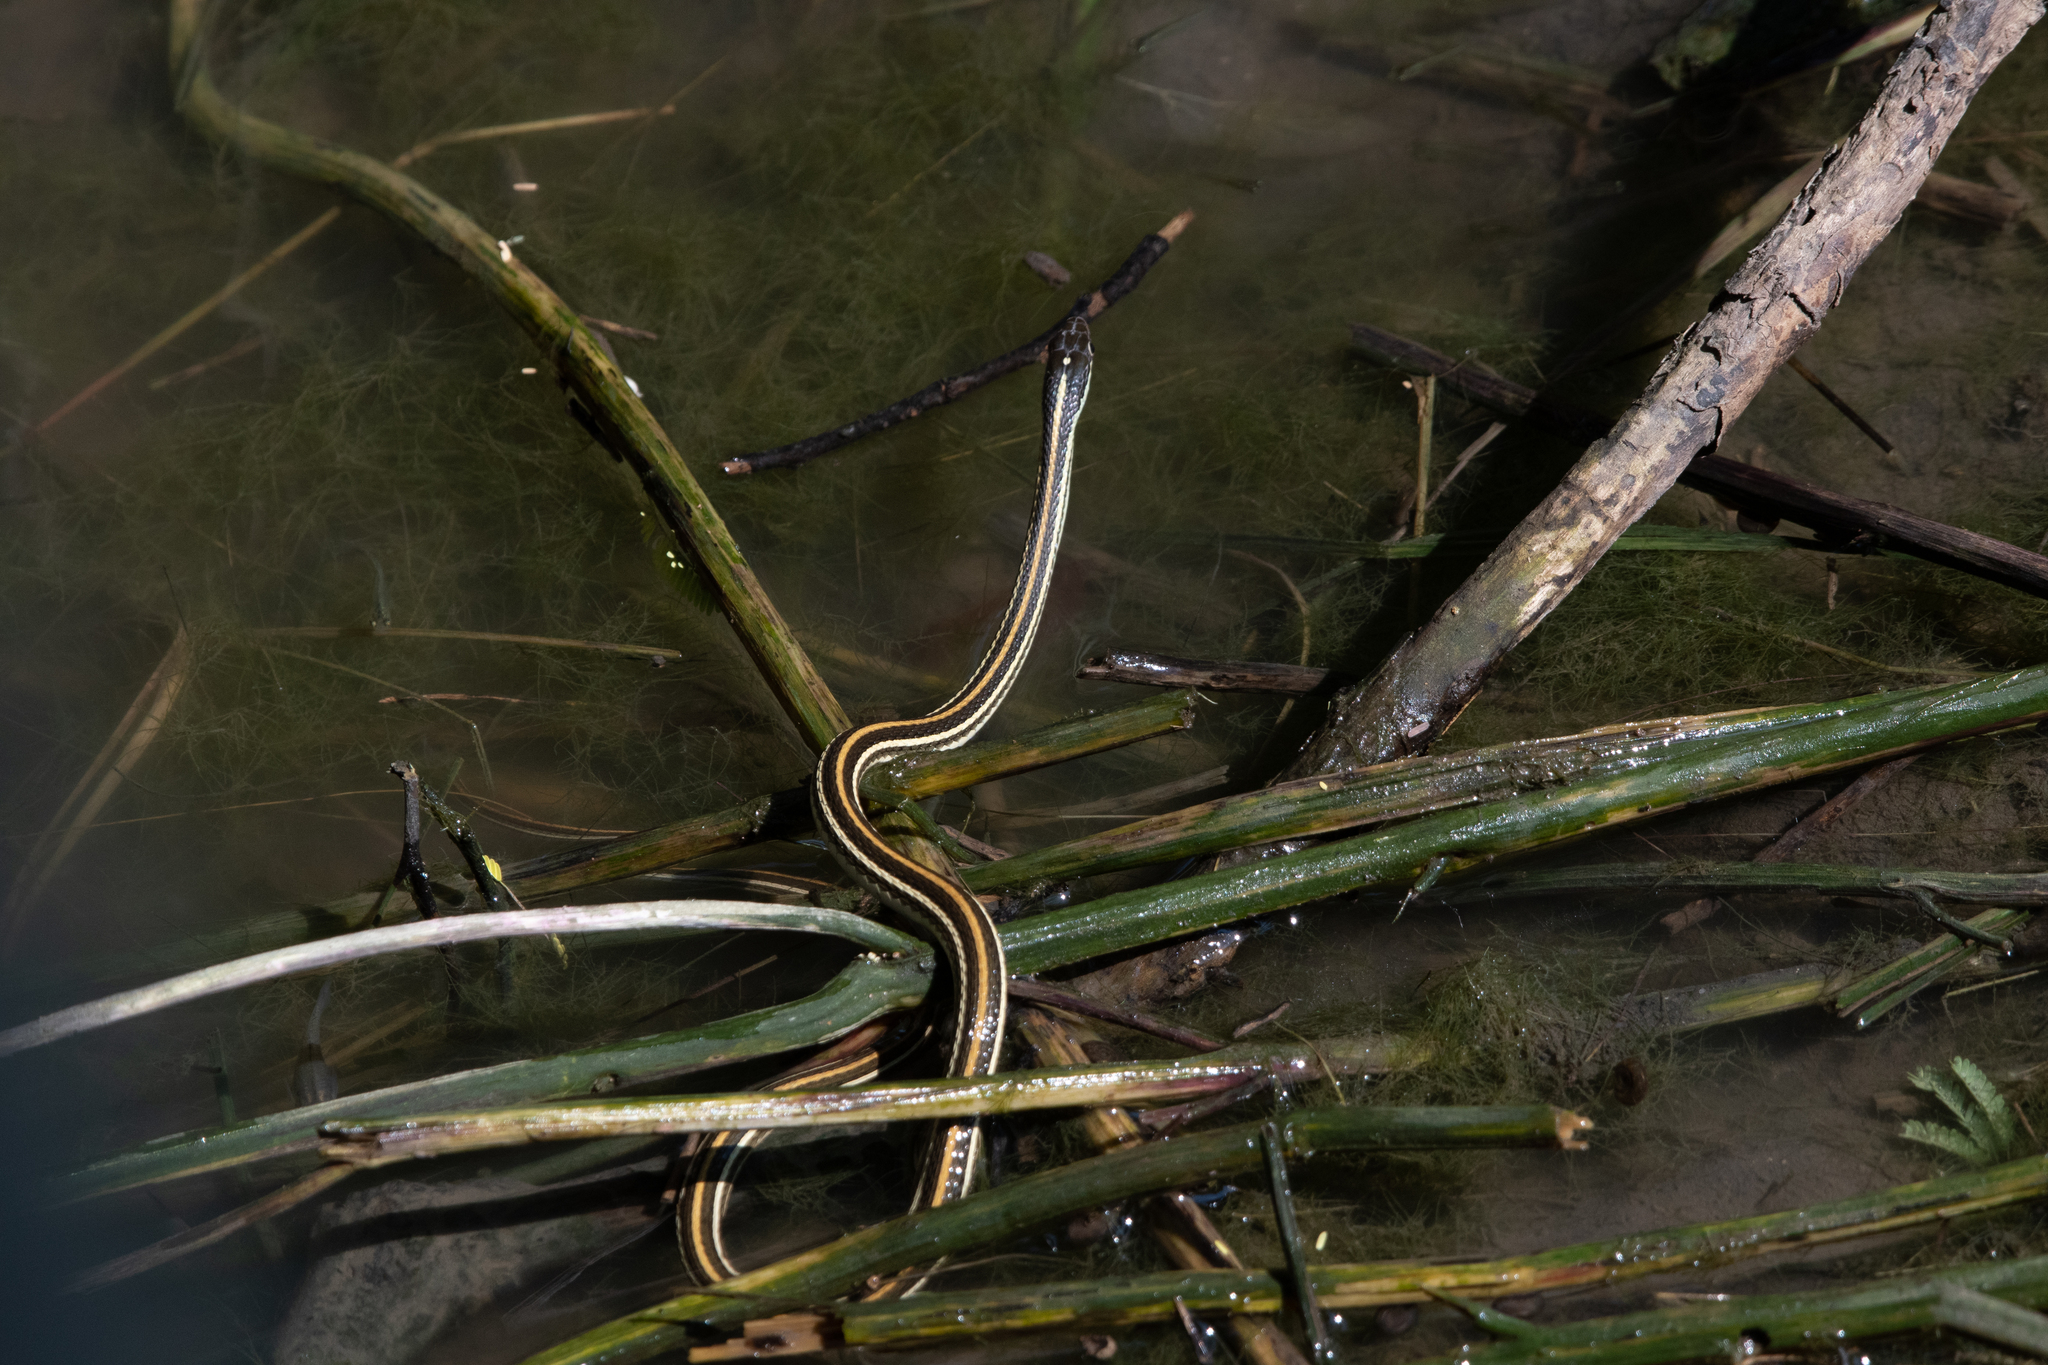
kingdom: Animalia
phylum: Chordata
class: Squamata
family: Colubridae
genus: Thamnophis
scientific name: Thamnophis proximus
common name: Western ribbon snake
